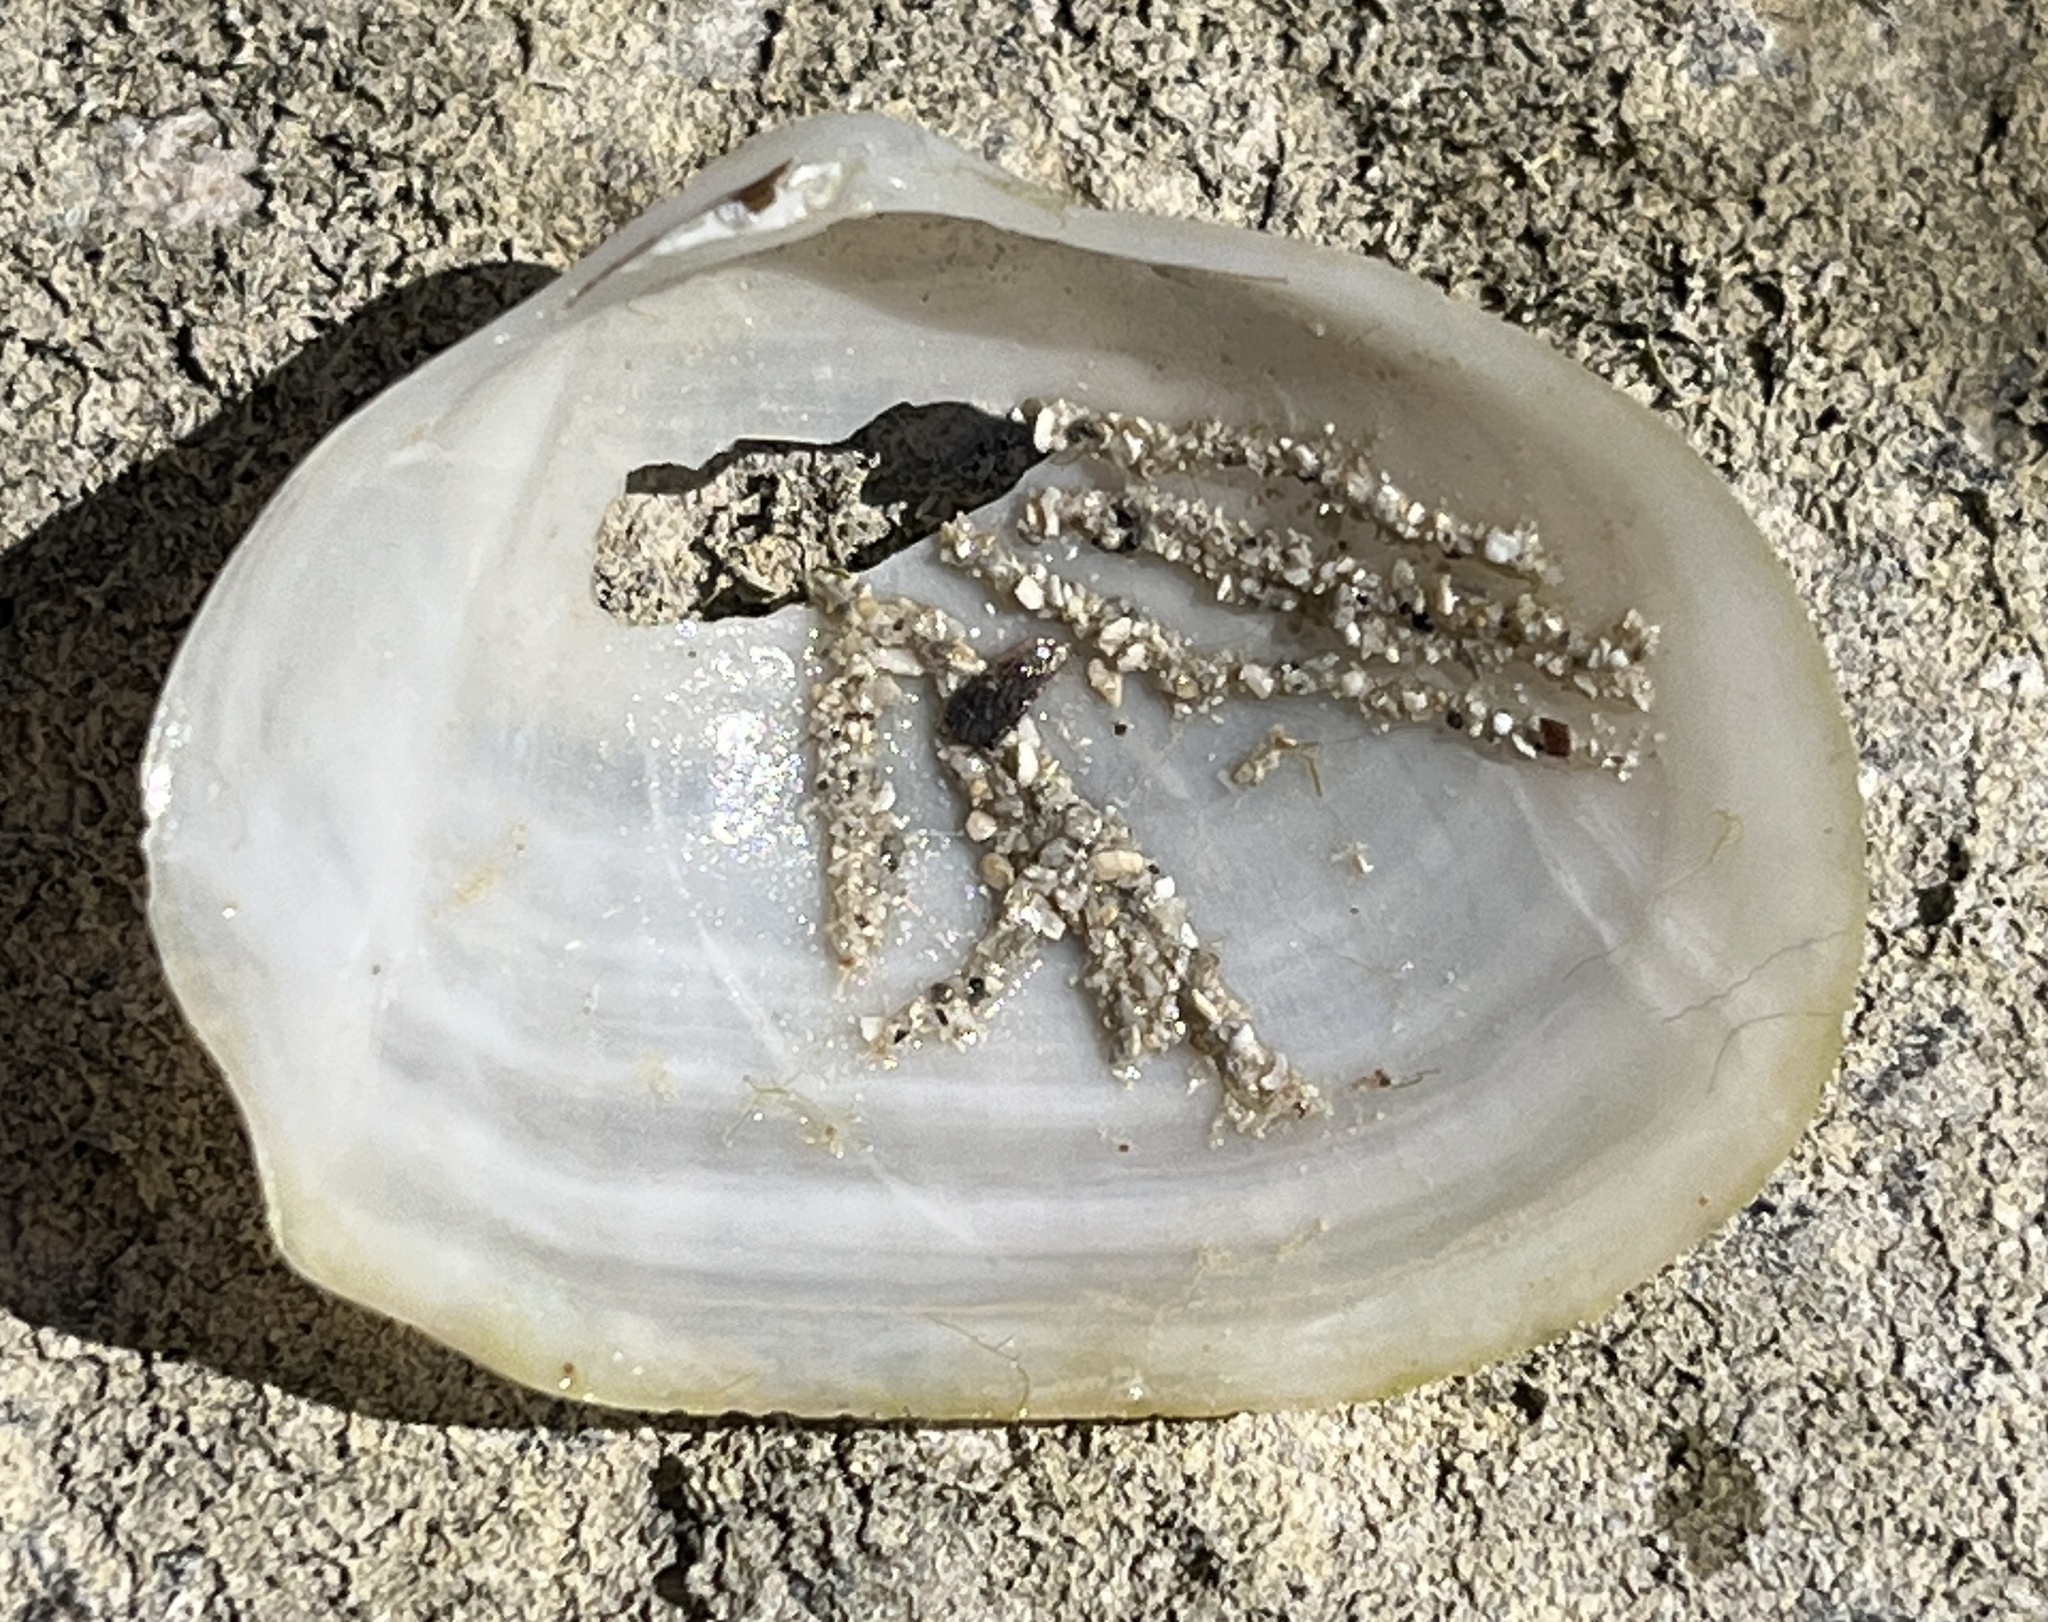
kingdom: Animalia
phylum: Mollusca
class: Bivalvia
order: Cardiida
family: Tellinidae
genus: Leporimetis
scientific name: Leporimetis ephippium
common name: Twisted duck clam
